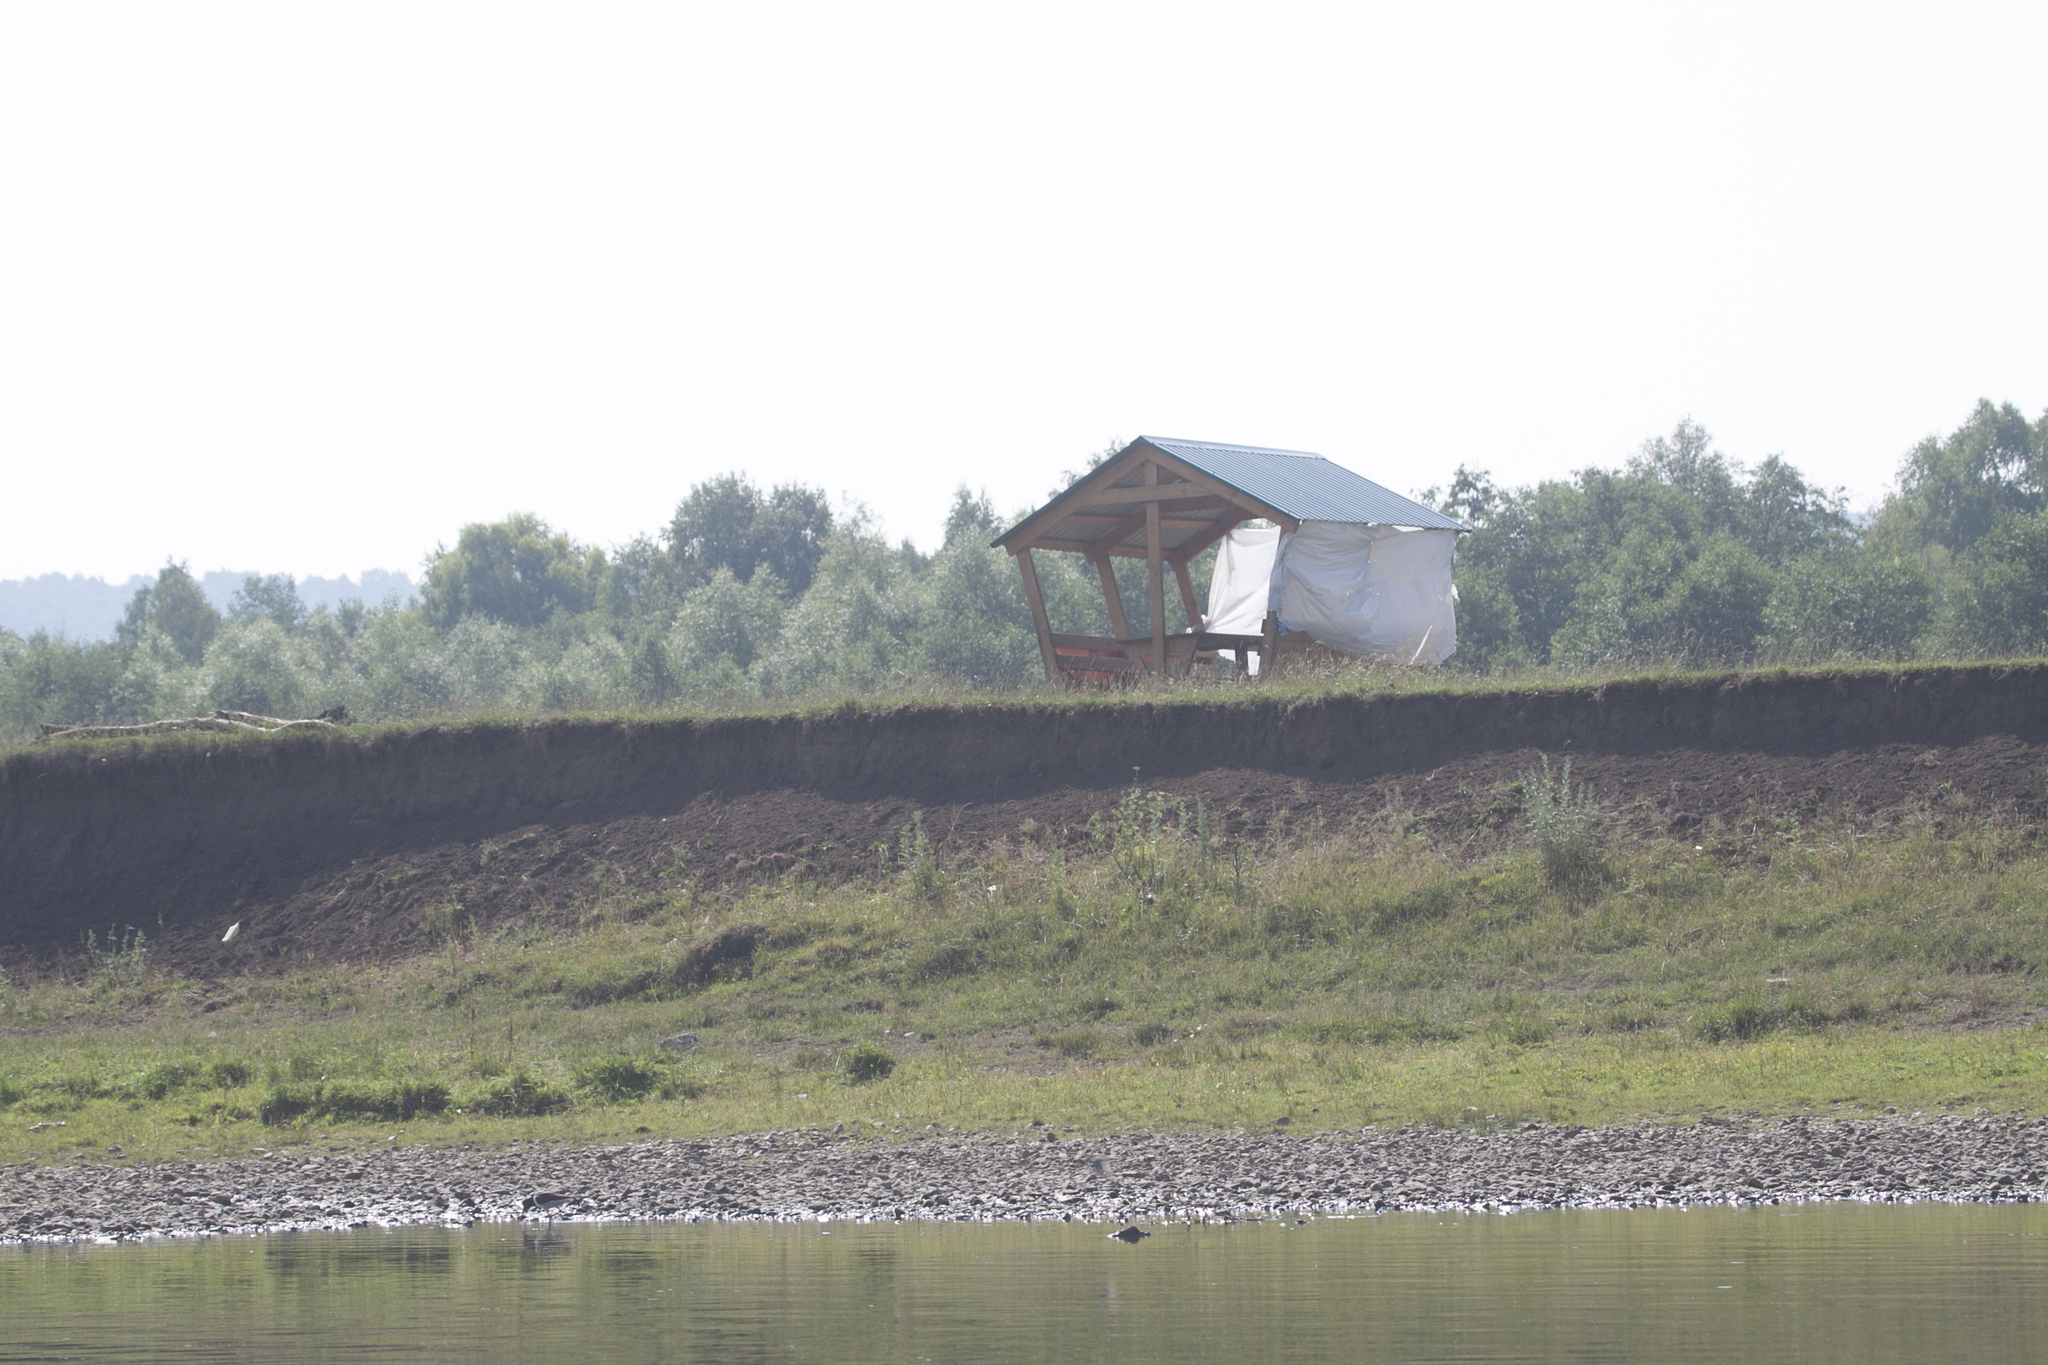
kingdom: Animalia
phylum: Chordata
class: Aves
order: Passeriformes
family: Hirundinidae
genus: Riparia
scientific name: Riparia riparia
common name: Sand martin
